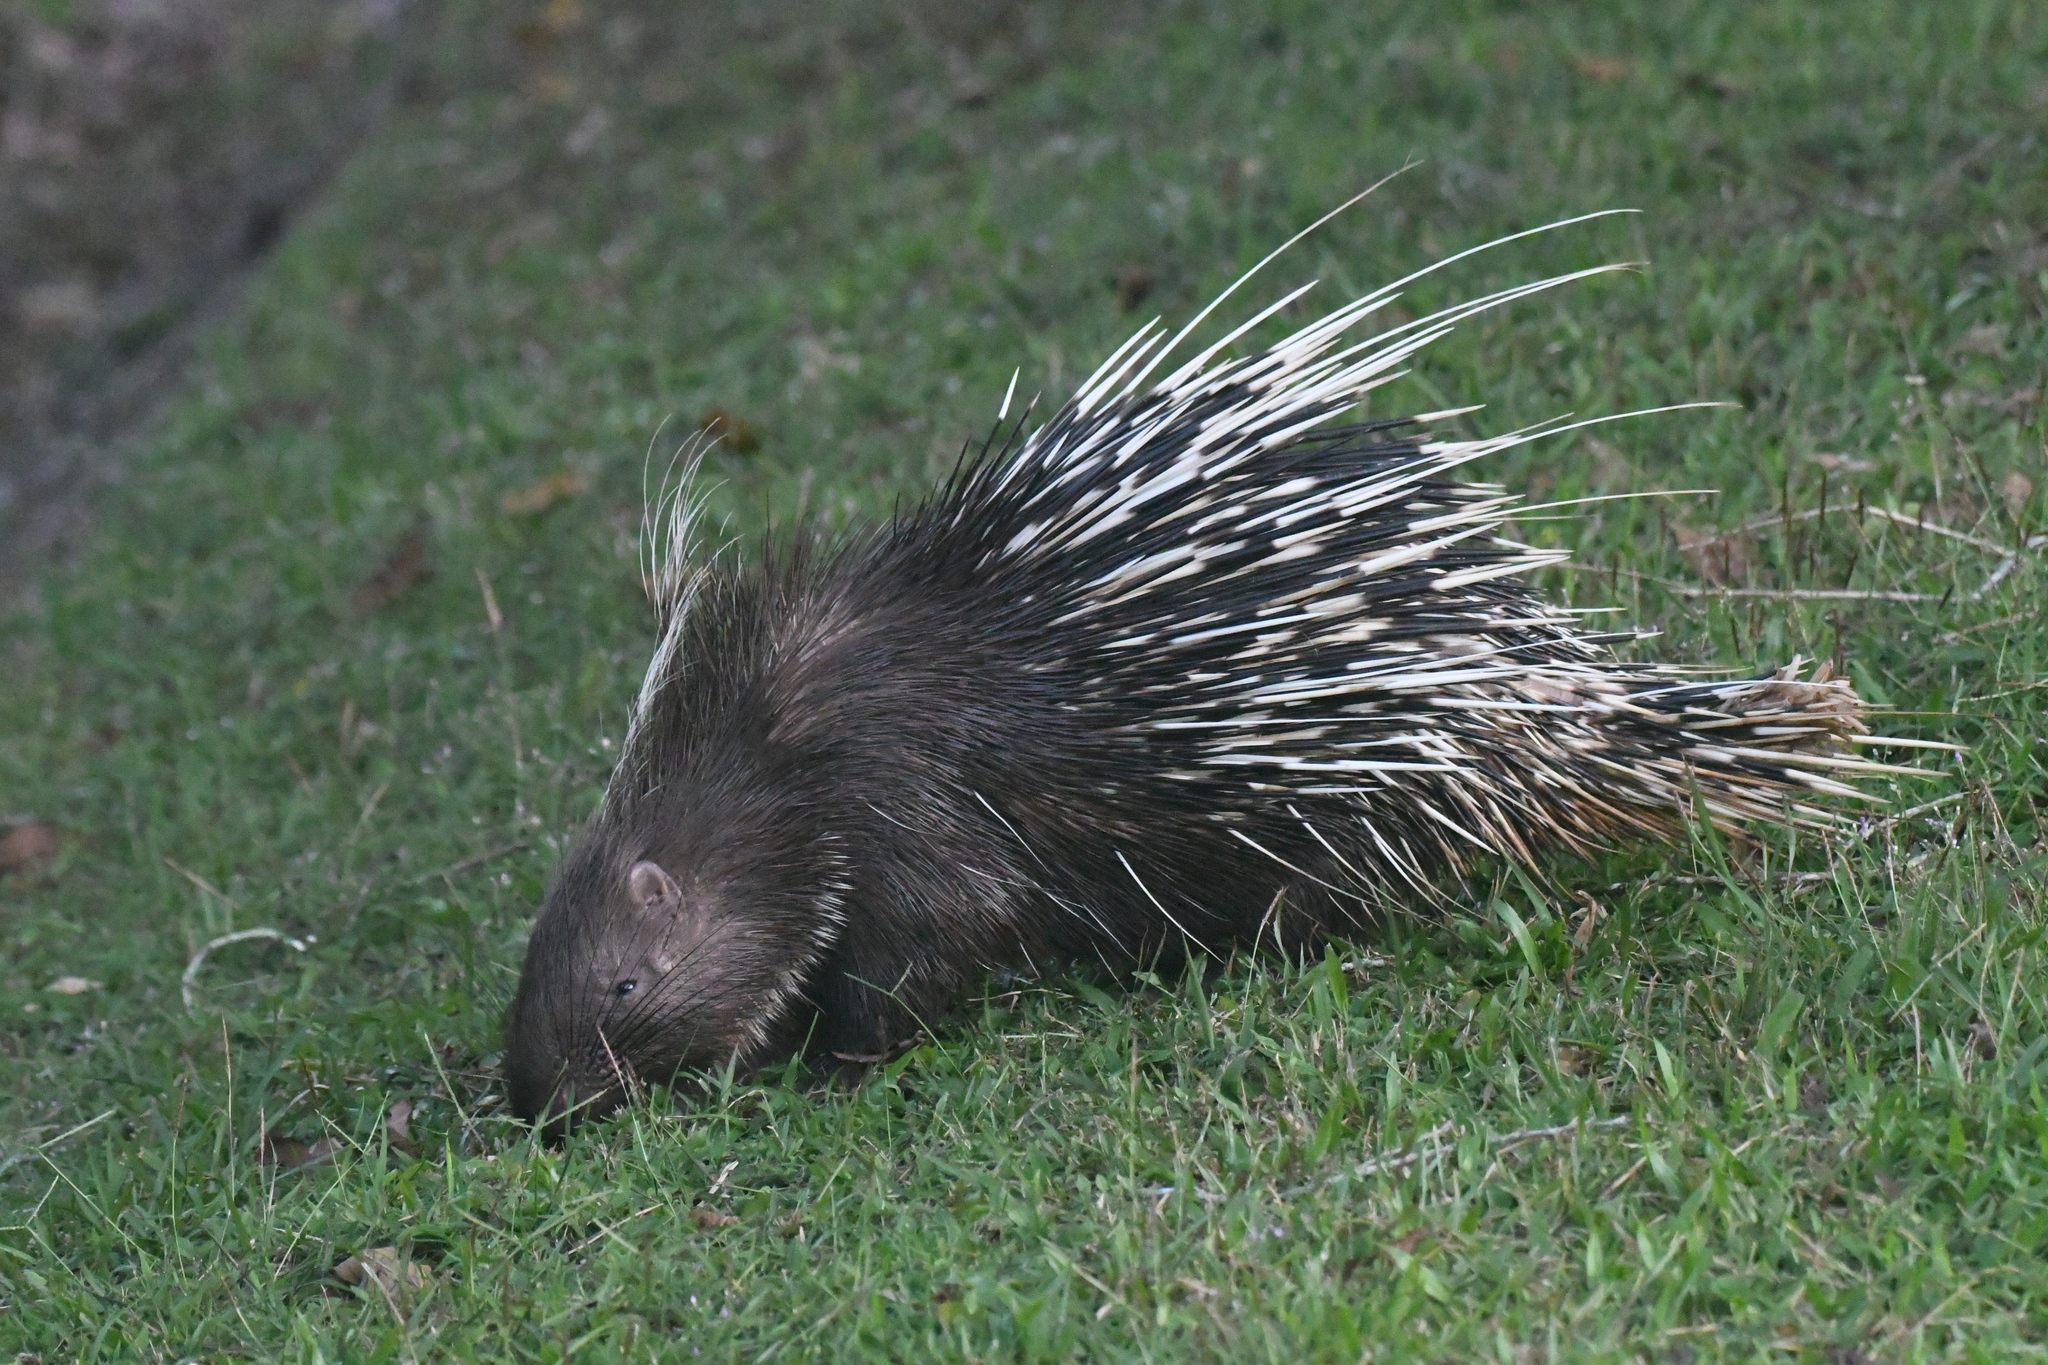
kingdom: Animalia
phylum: Chordata
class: Mammalia
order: Rodentia
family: Hystricidae
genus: Hystrix
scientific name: Hystrix brachyura
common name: Malayan porcupine
